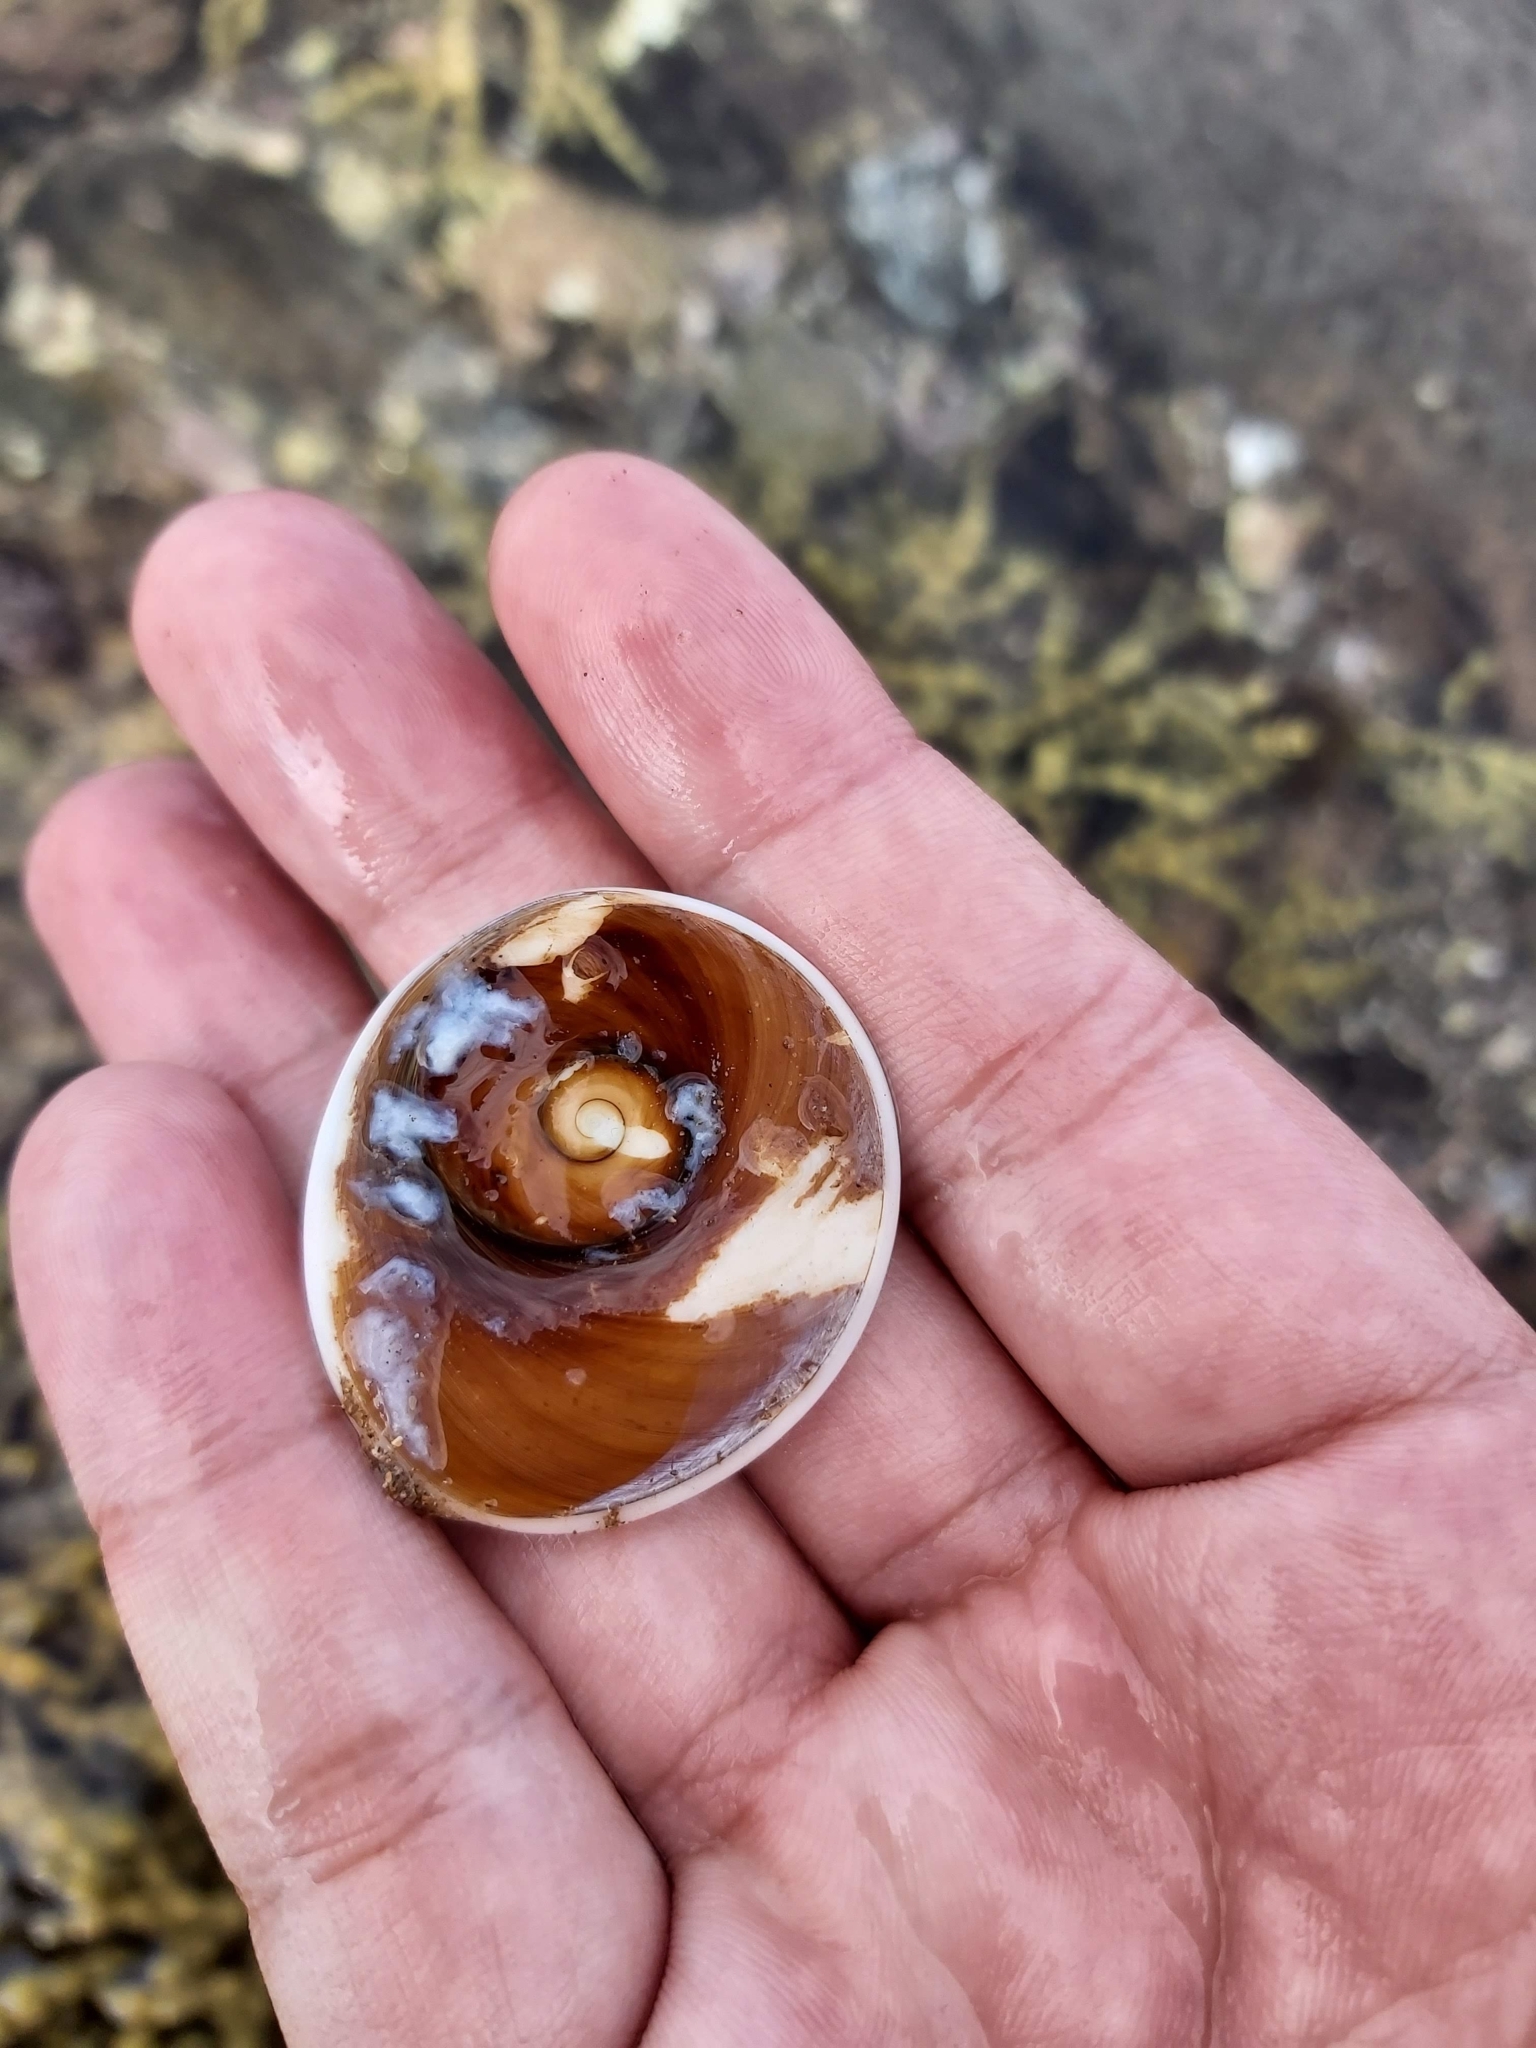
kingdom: Animalia
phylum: Mollusca
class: Gastropoda
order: Trochida
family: Turbinidae
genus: Turbo
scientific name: Turbo militaris
